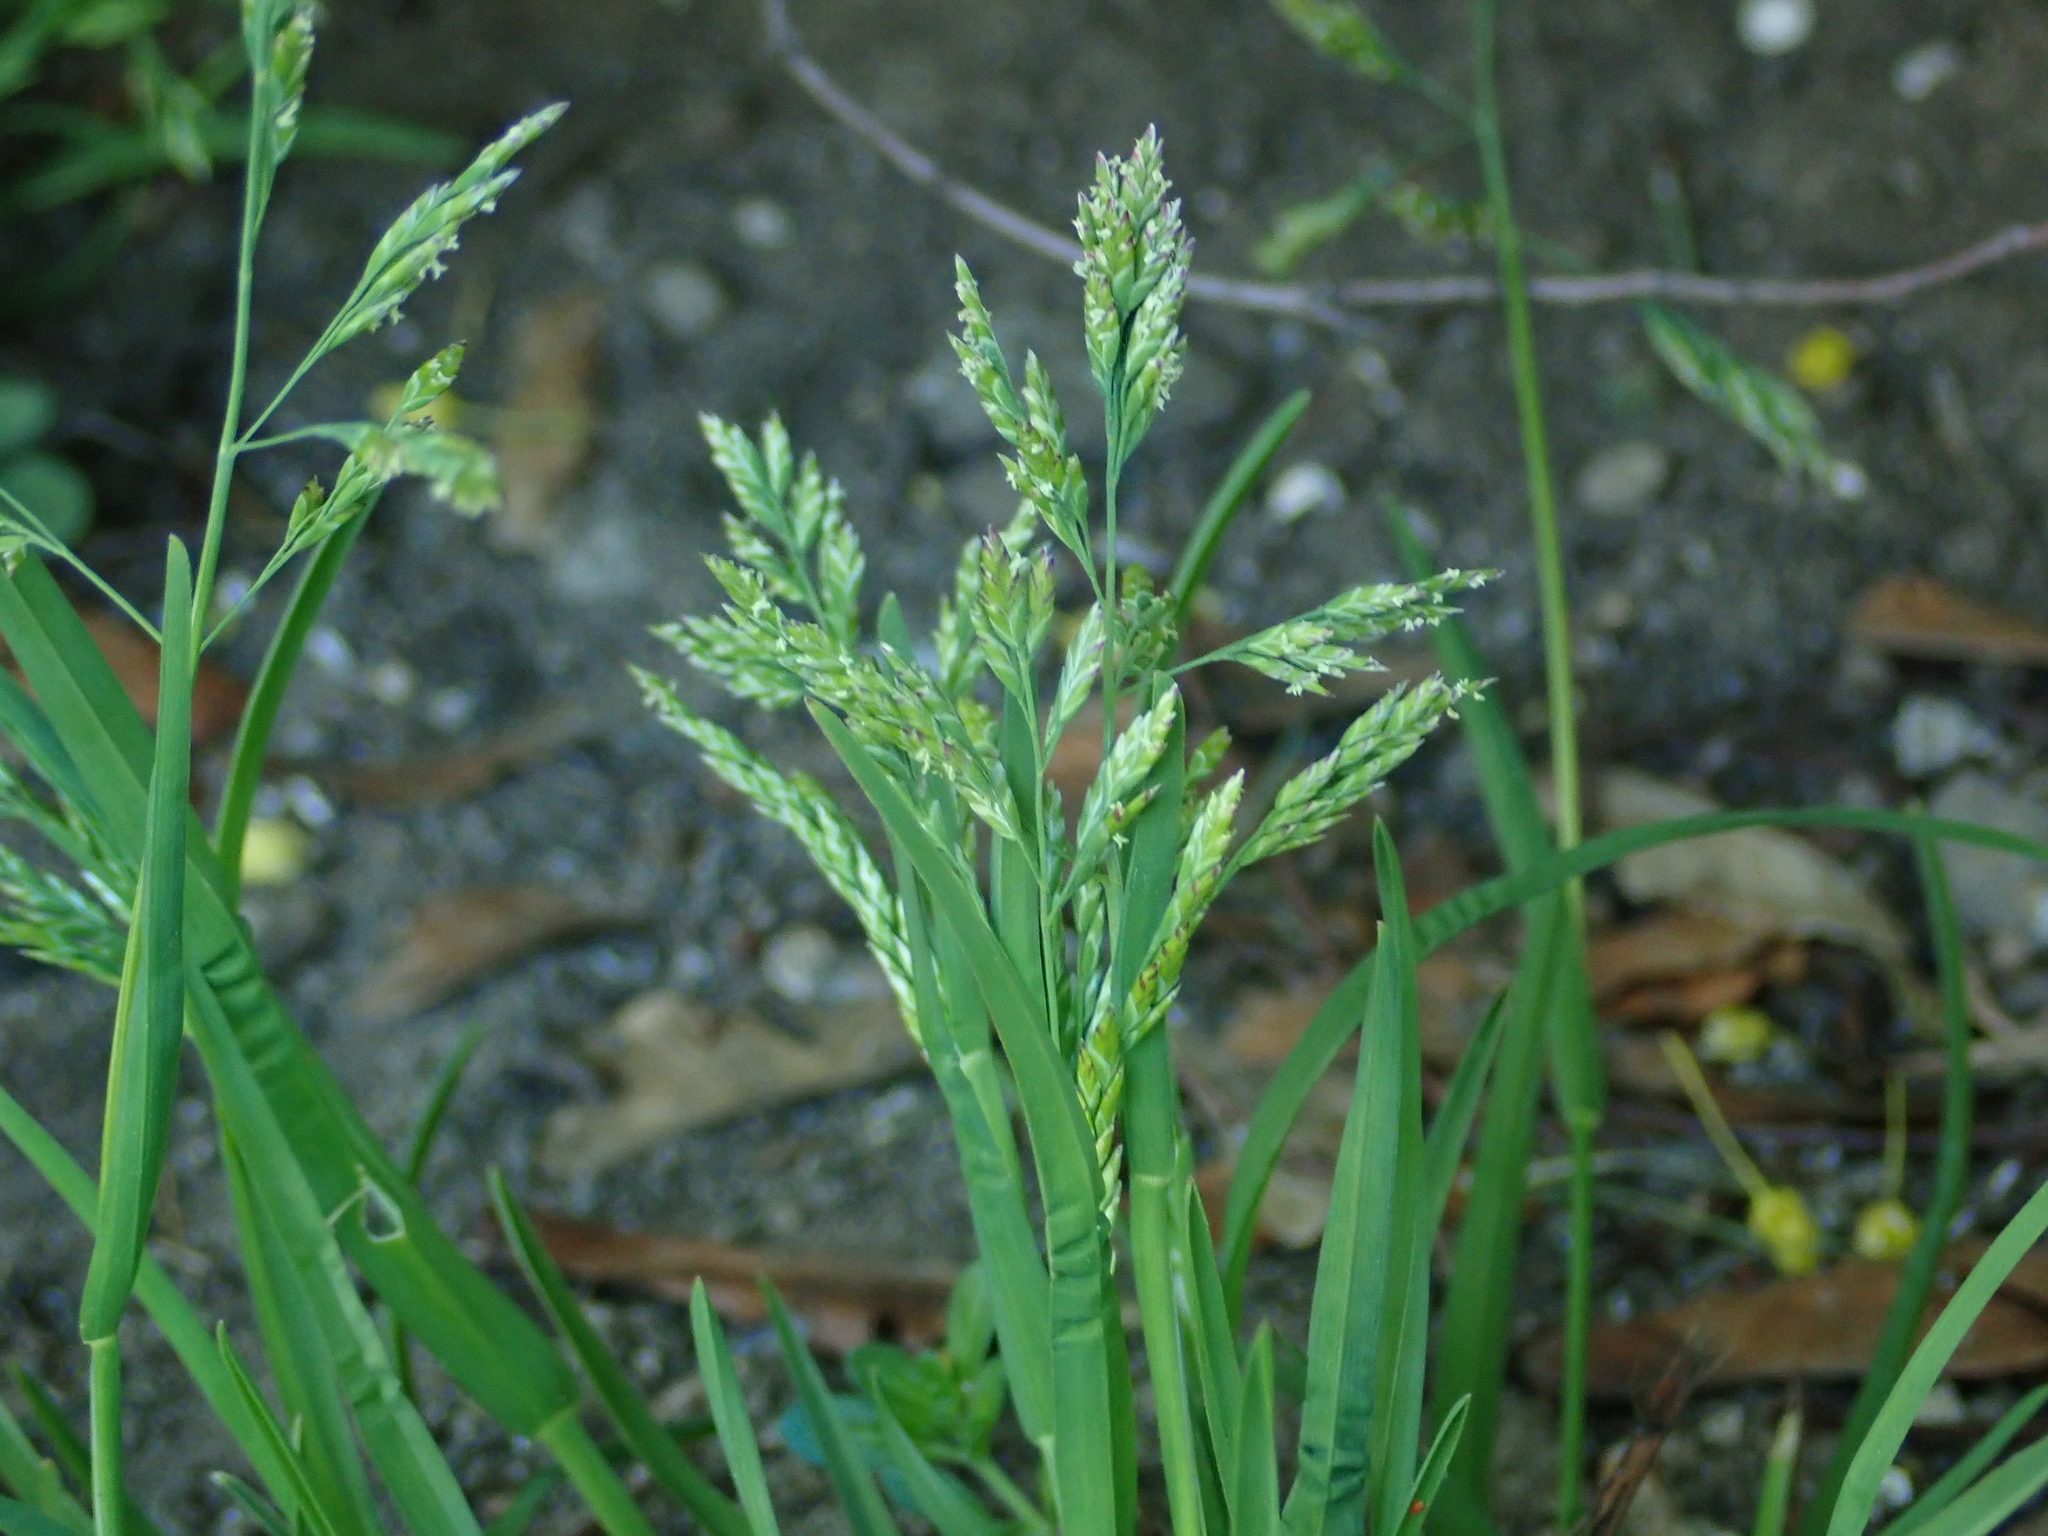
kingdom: Plantae
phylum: Tracheophyta
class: Liliopsida
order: Poales
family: Poaceae
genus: Poa
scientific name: Poa annua
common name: Annual bluegrass
